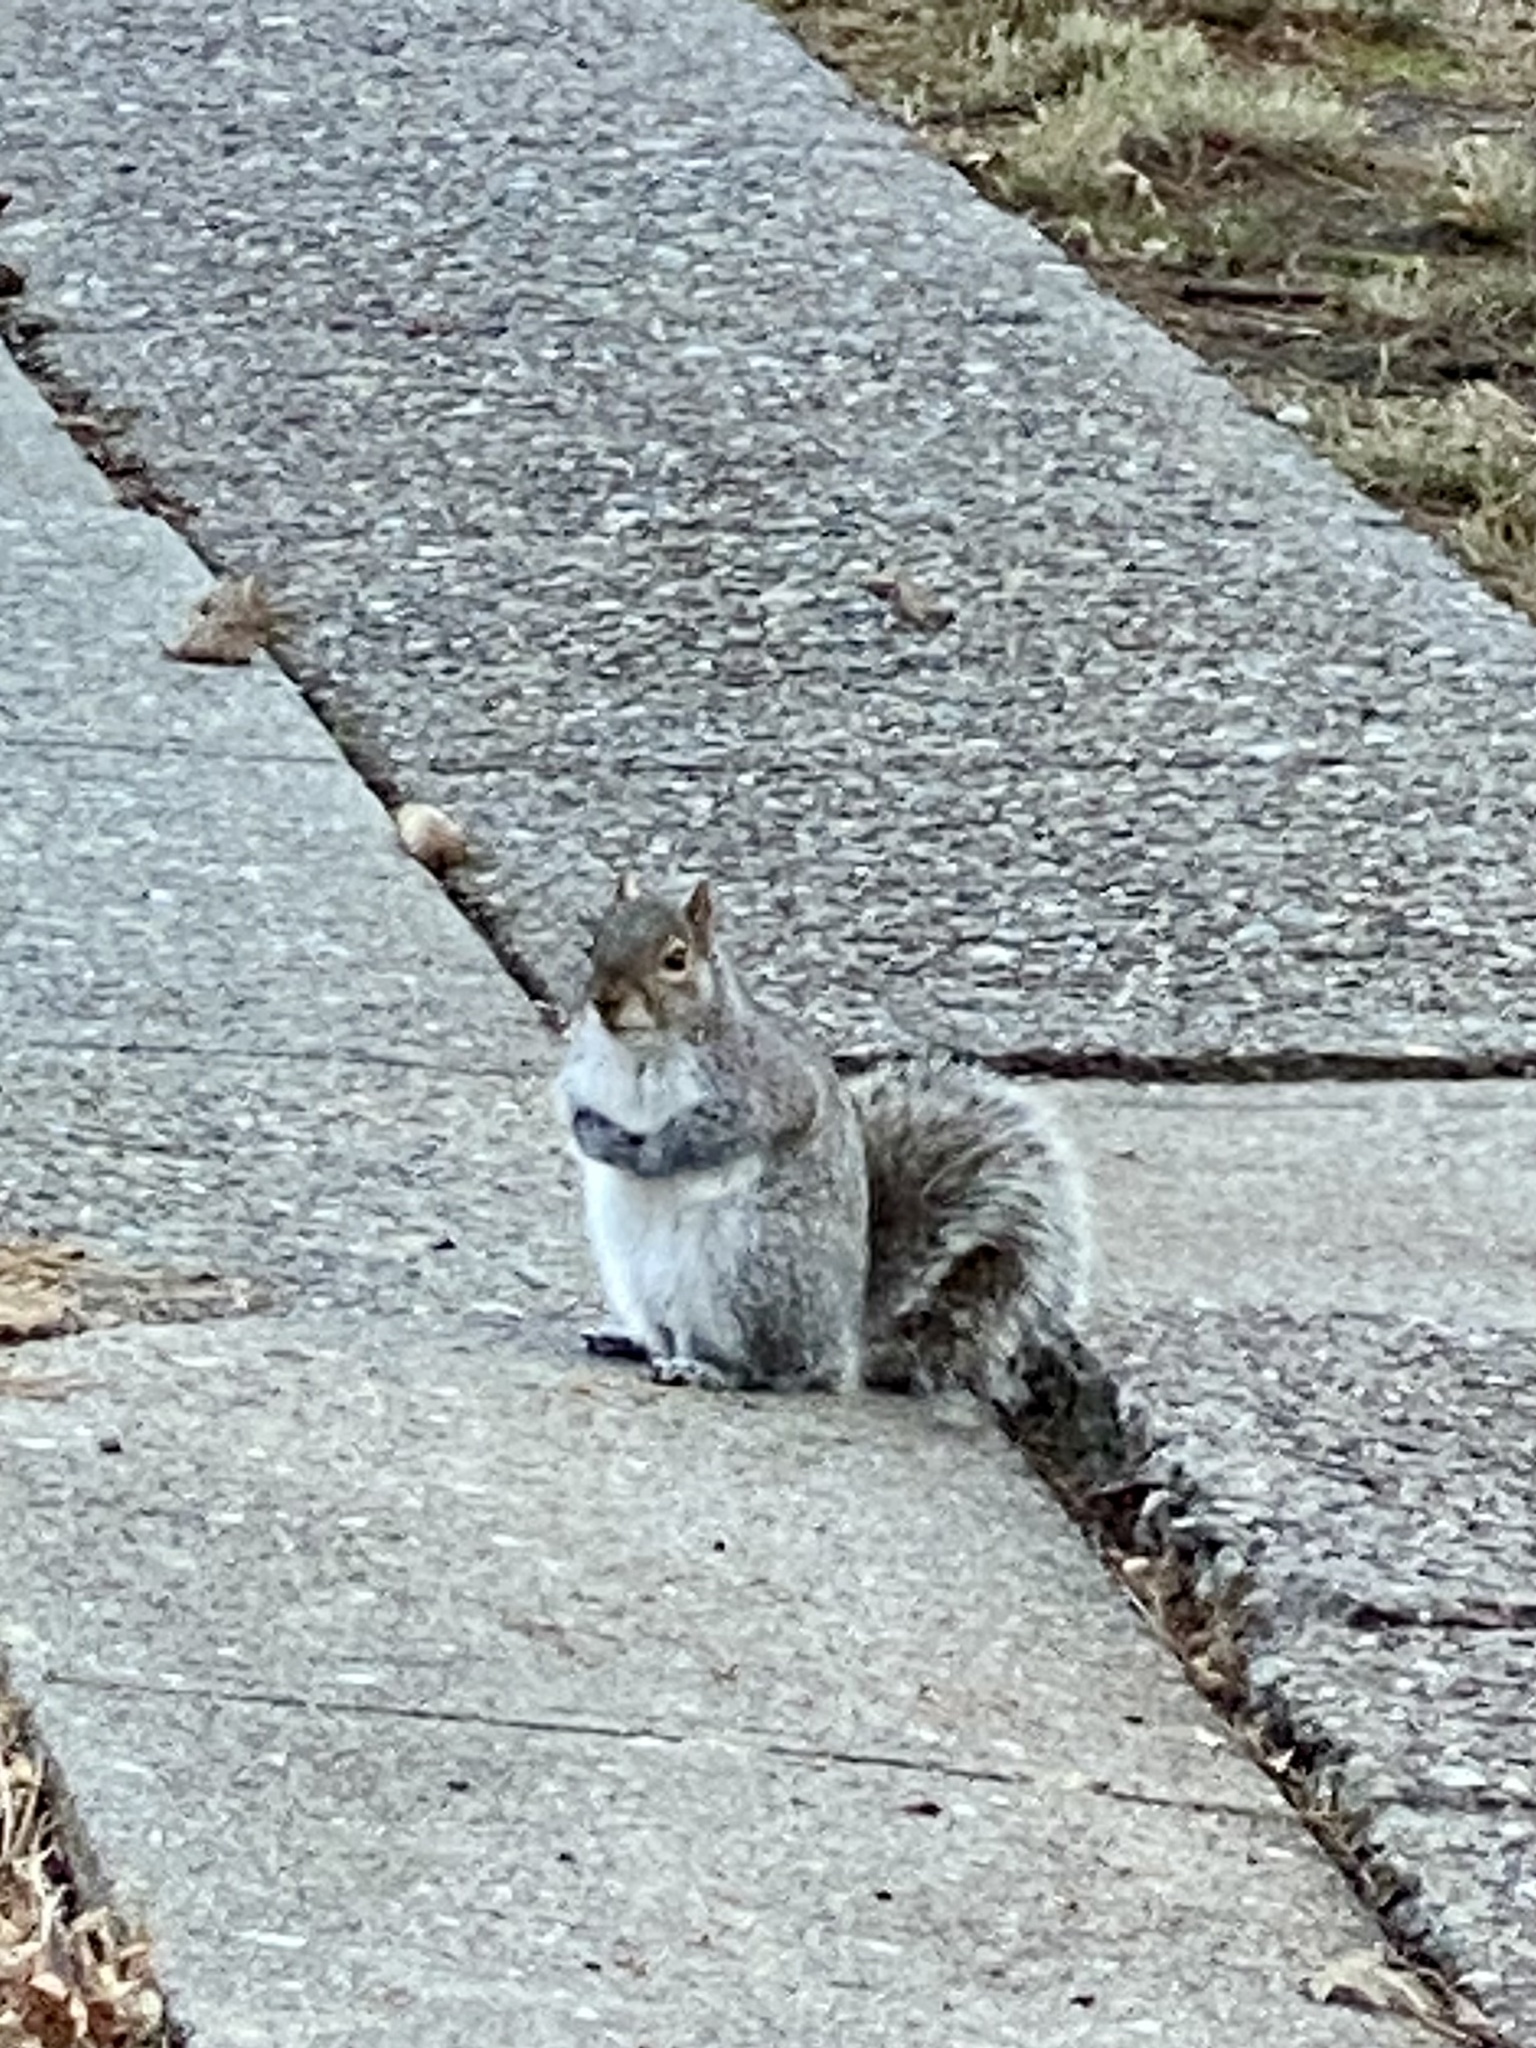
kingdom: Animalia
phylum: Chordata
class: Mammalia
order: Rodentia
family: Sciuridae
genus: Sciurus
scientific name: Sciurus carolinensis
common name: Eastern gray squirrel
